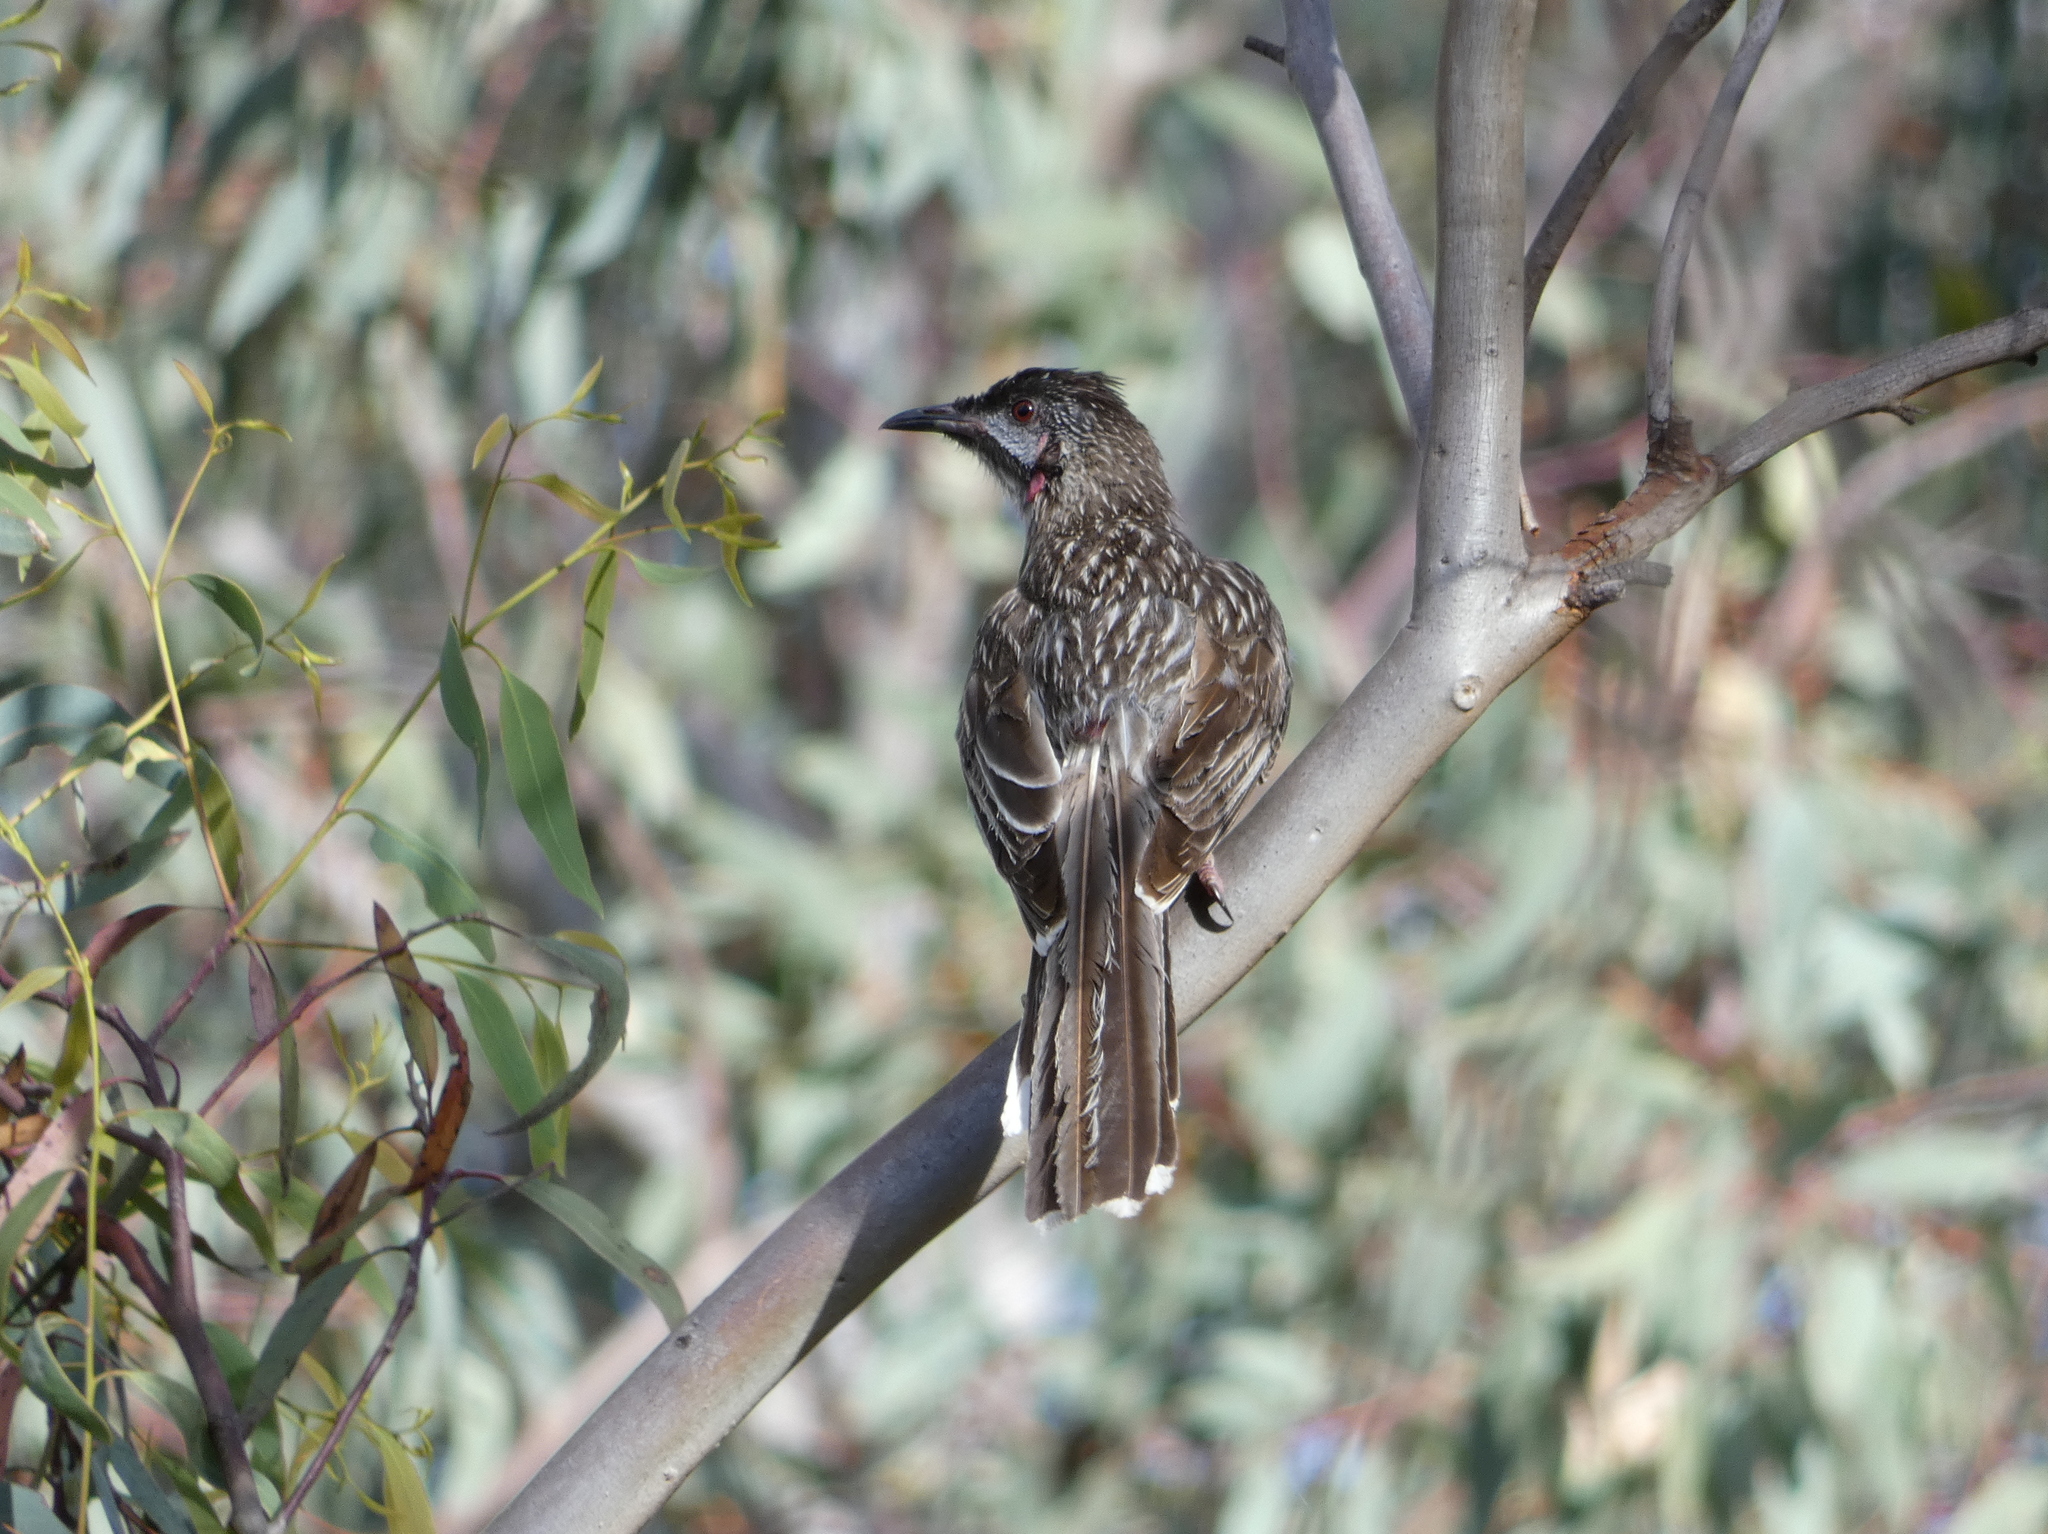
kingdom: Animalia
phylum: Chordata
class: Aves
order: Passeriformes
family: Meliphagidae
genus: Anthochaera
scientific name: Anthochaera carunculata
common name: Red wattlebird
